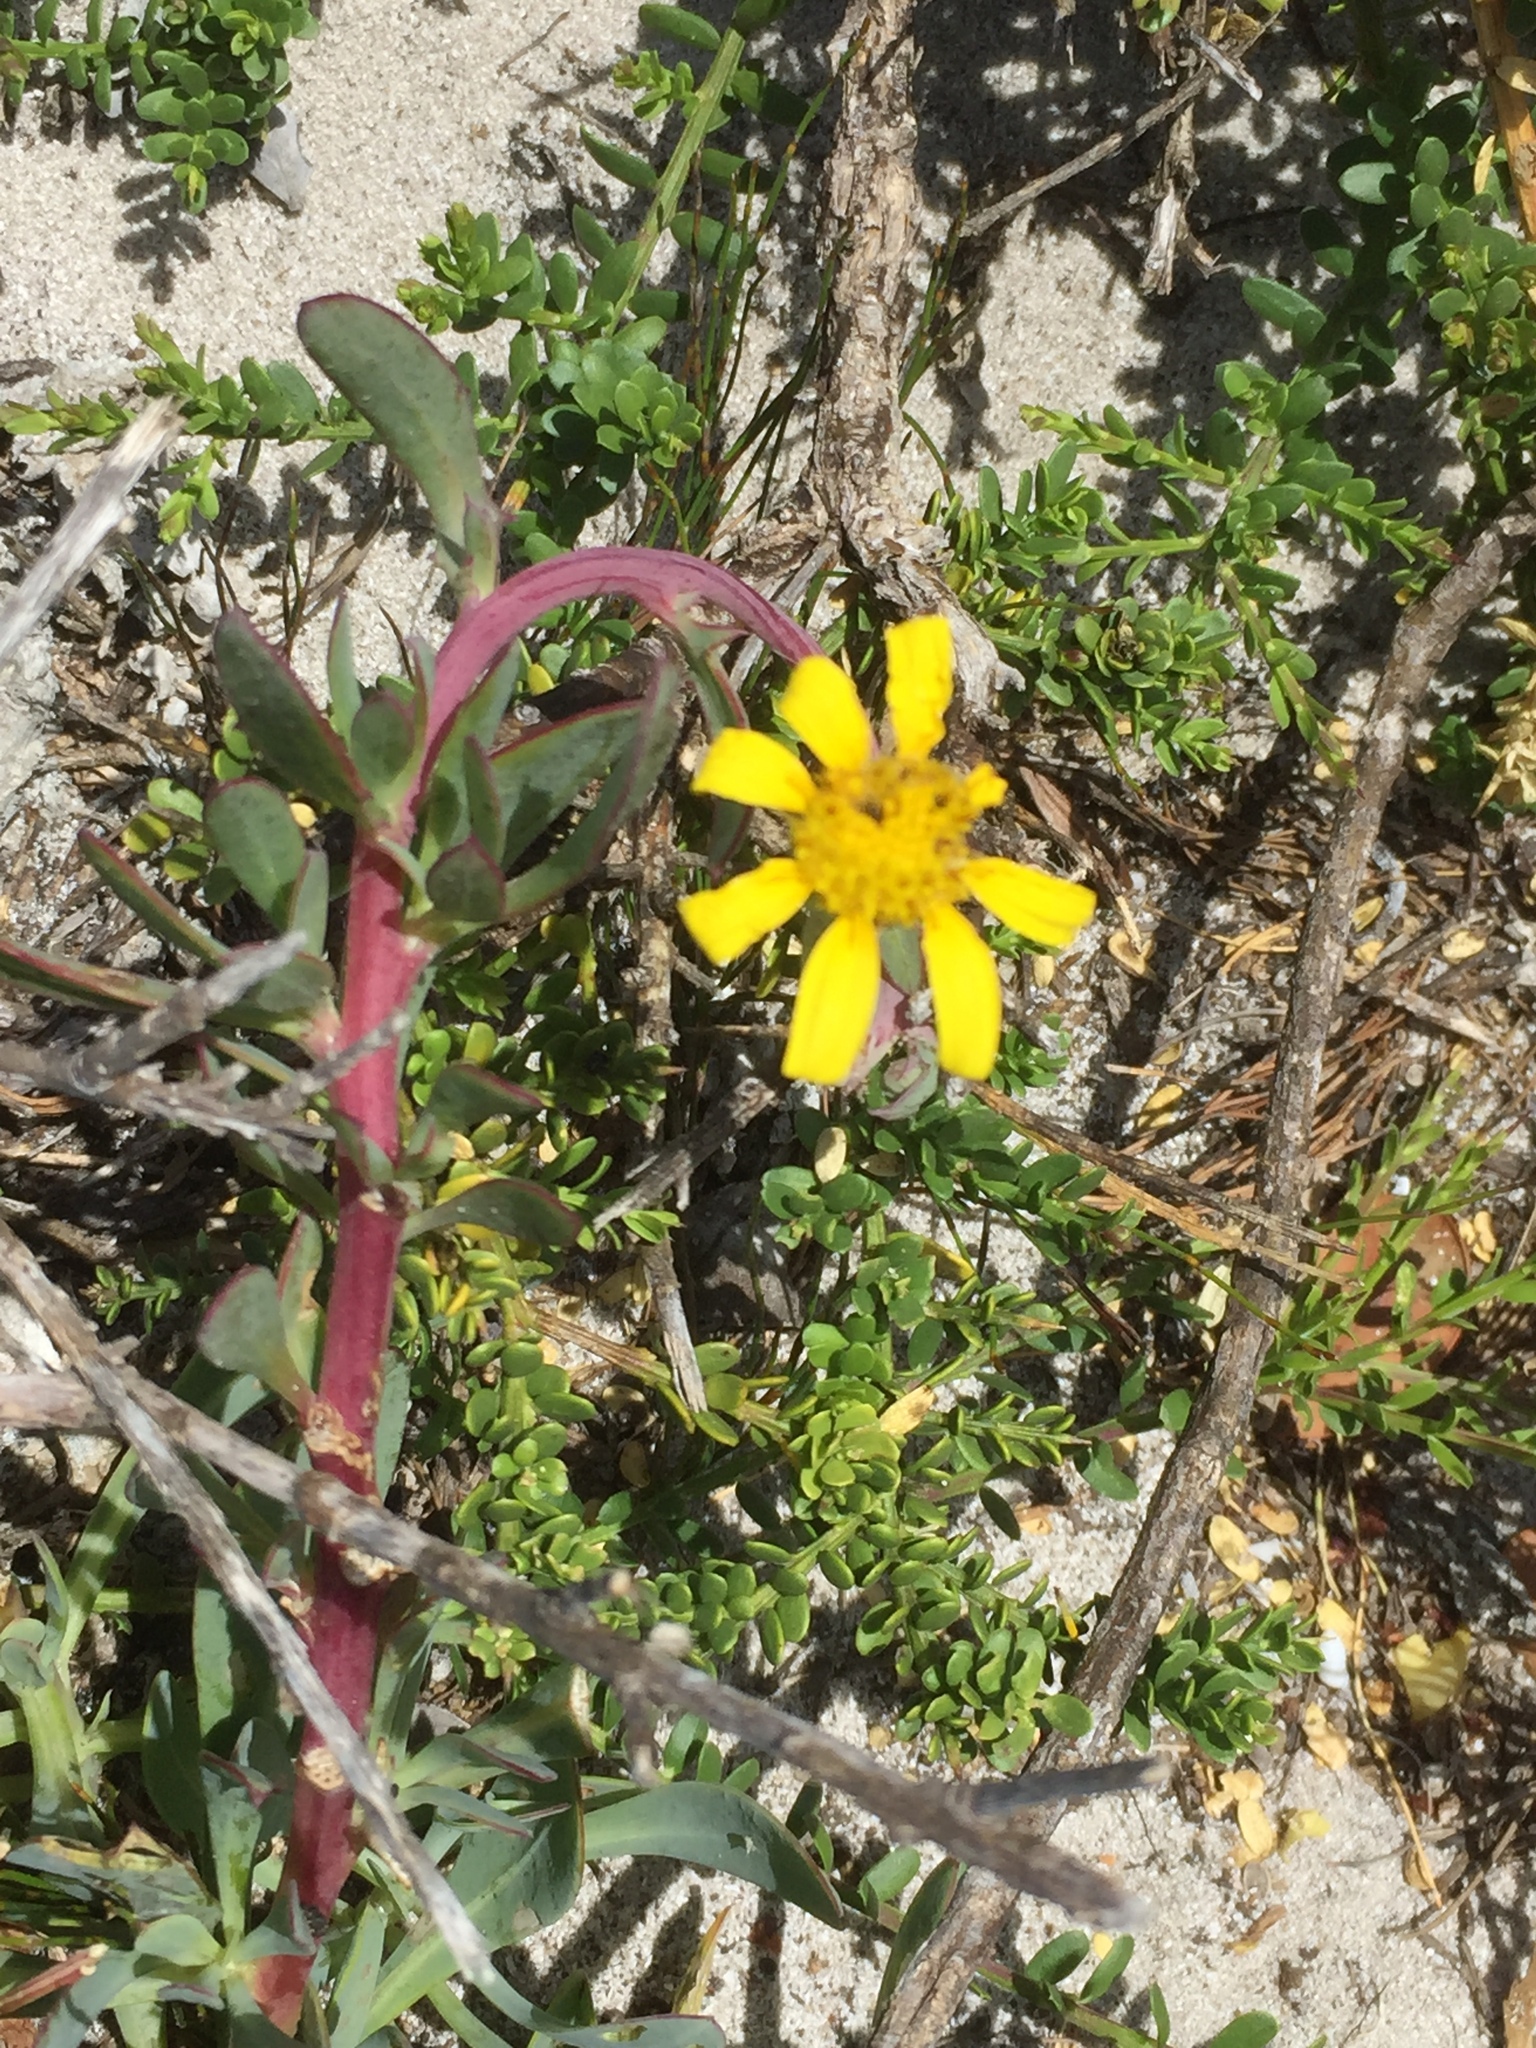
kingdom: Plantae
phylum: Tracheophyta
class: Magnoliopsida
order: Asterales
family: Asteraceae
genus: Othonna
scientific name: Othonna coronopifolia
